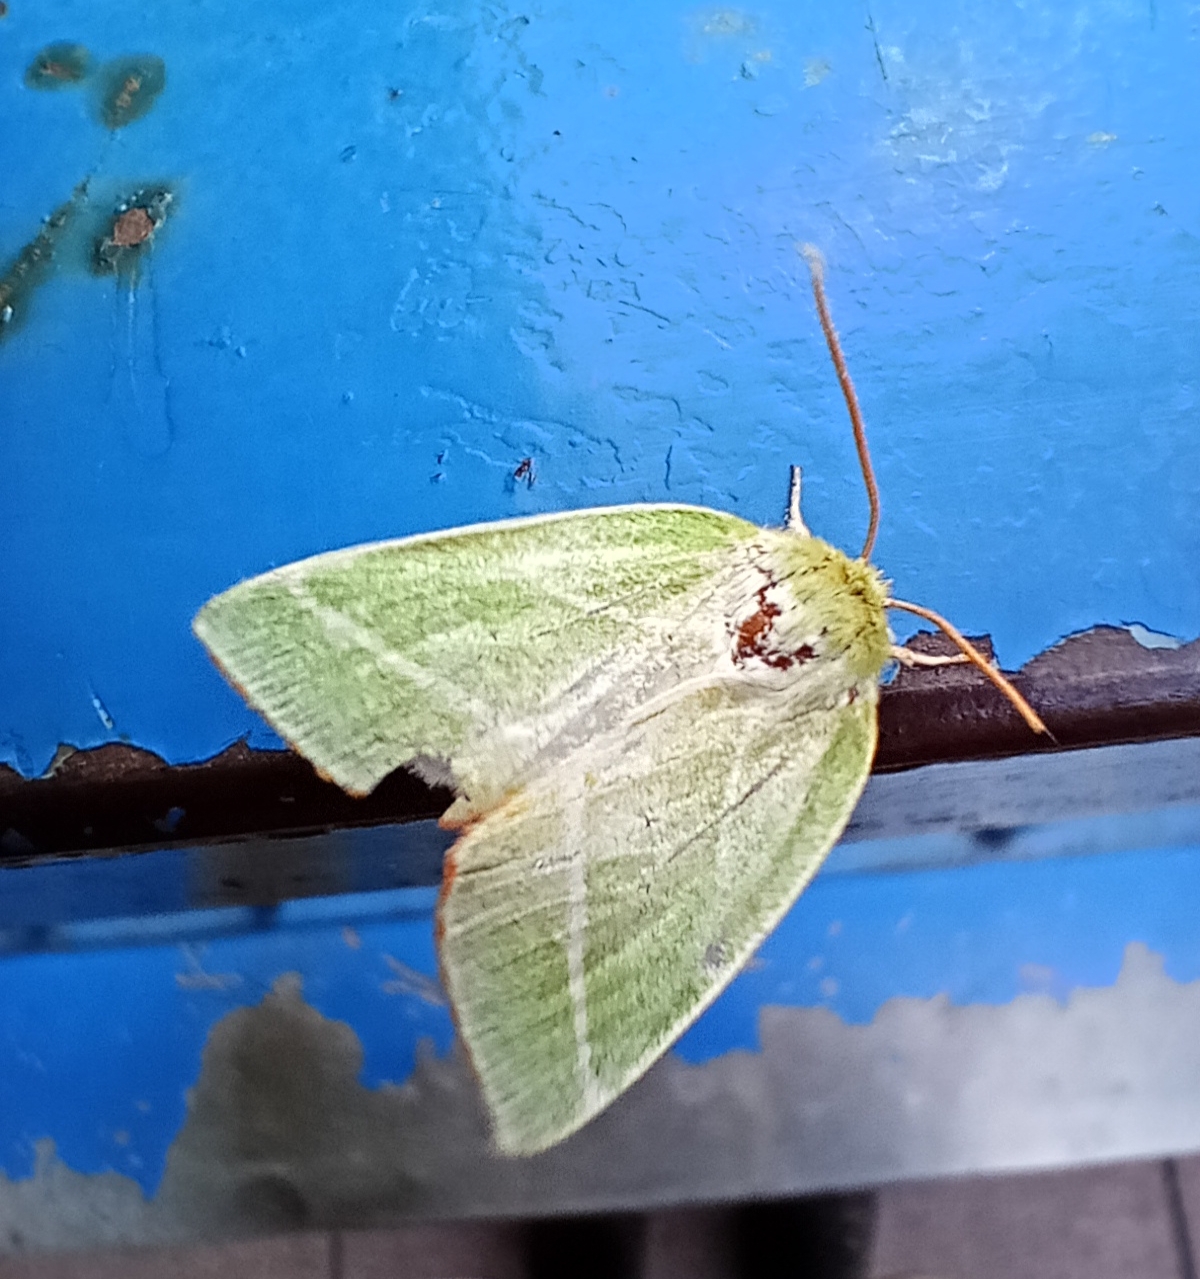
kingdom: Animalia
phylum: Arthropoda
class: Insecta
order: Lepidoptera
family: Nolidae
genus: Pseudoips
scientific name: Pseudoips prasinana
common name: Green silver-lines
